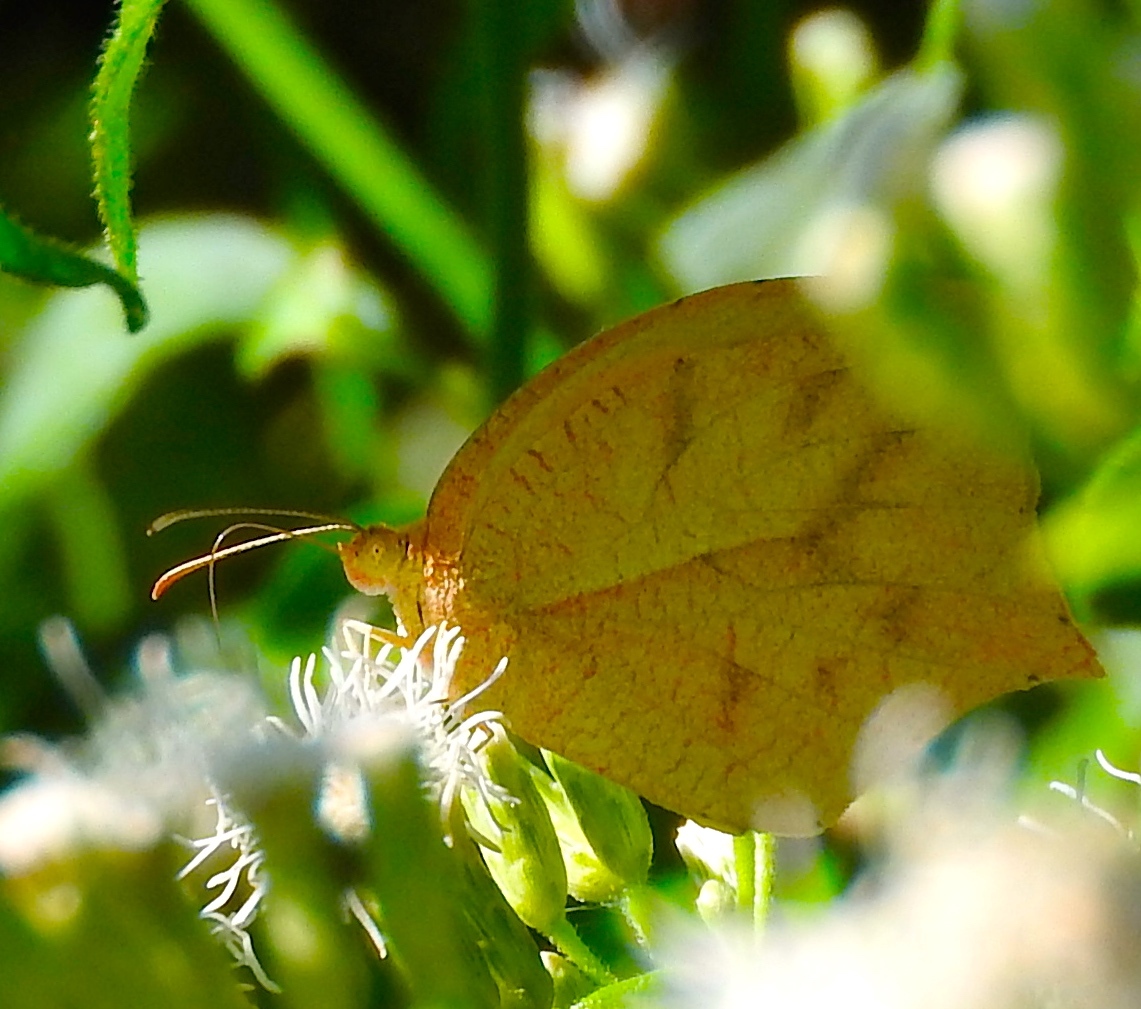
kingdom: Animalia
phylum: Arthropoda
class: Insecta
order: Lepidoptera
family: Pieridae
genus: Pyrisitia
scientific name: Pyrisitia proterpia
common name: Tailed orange
